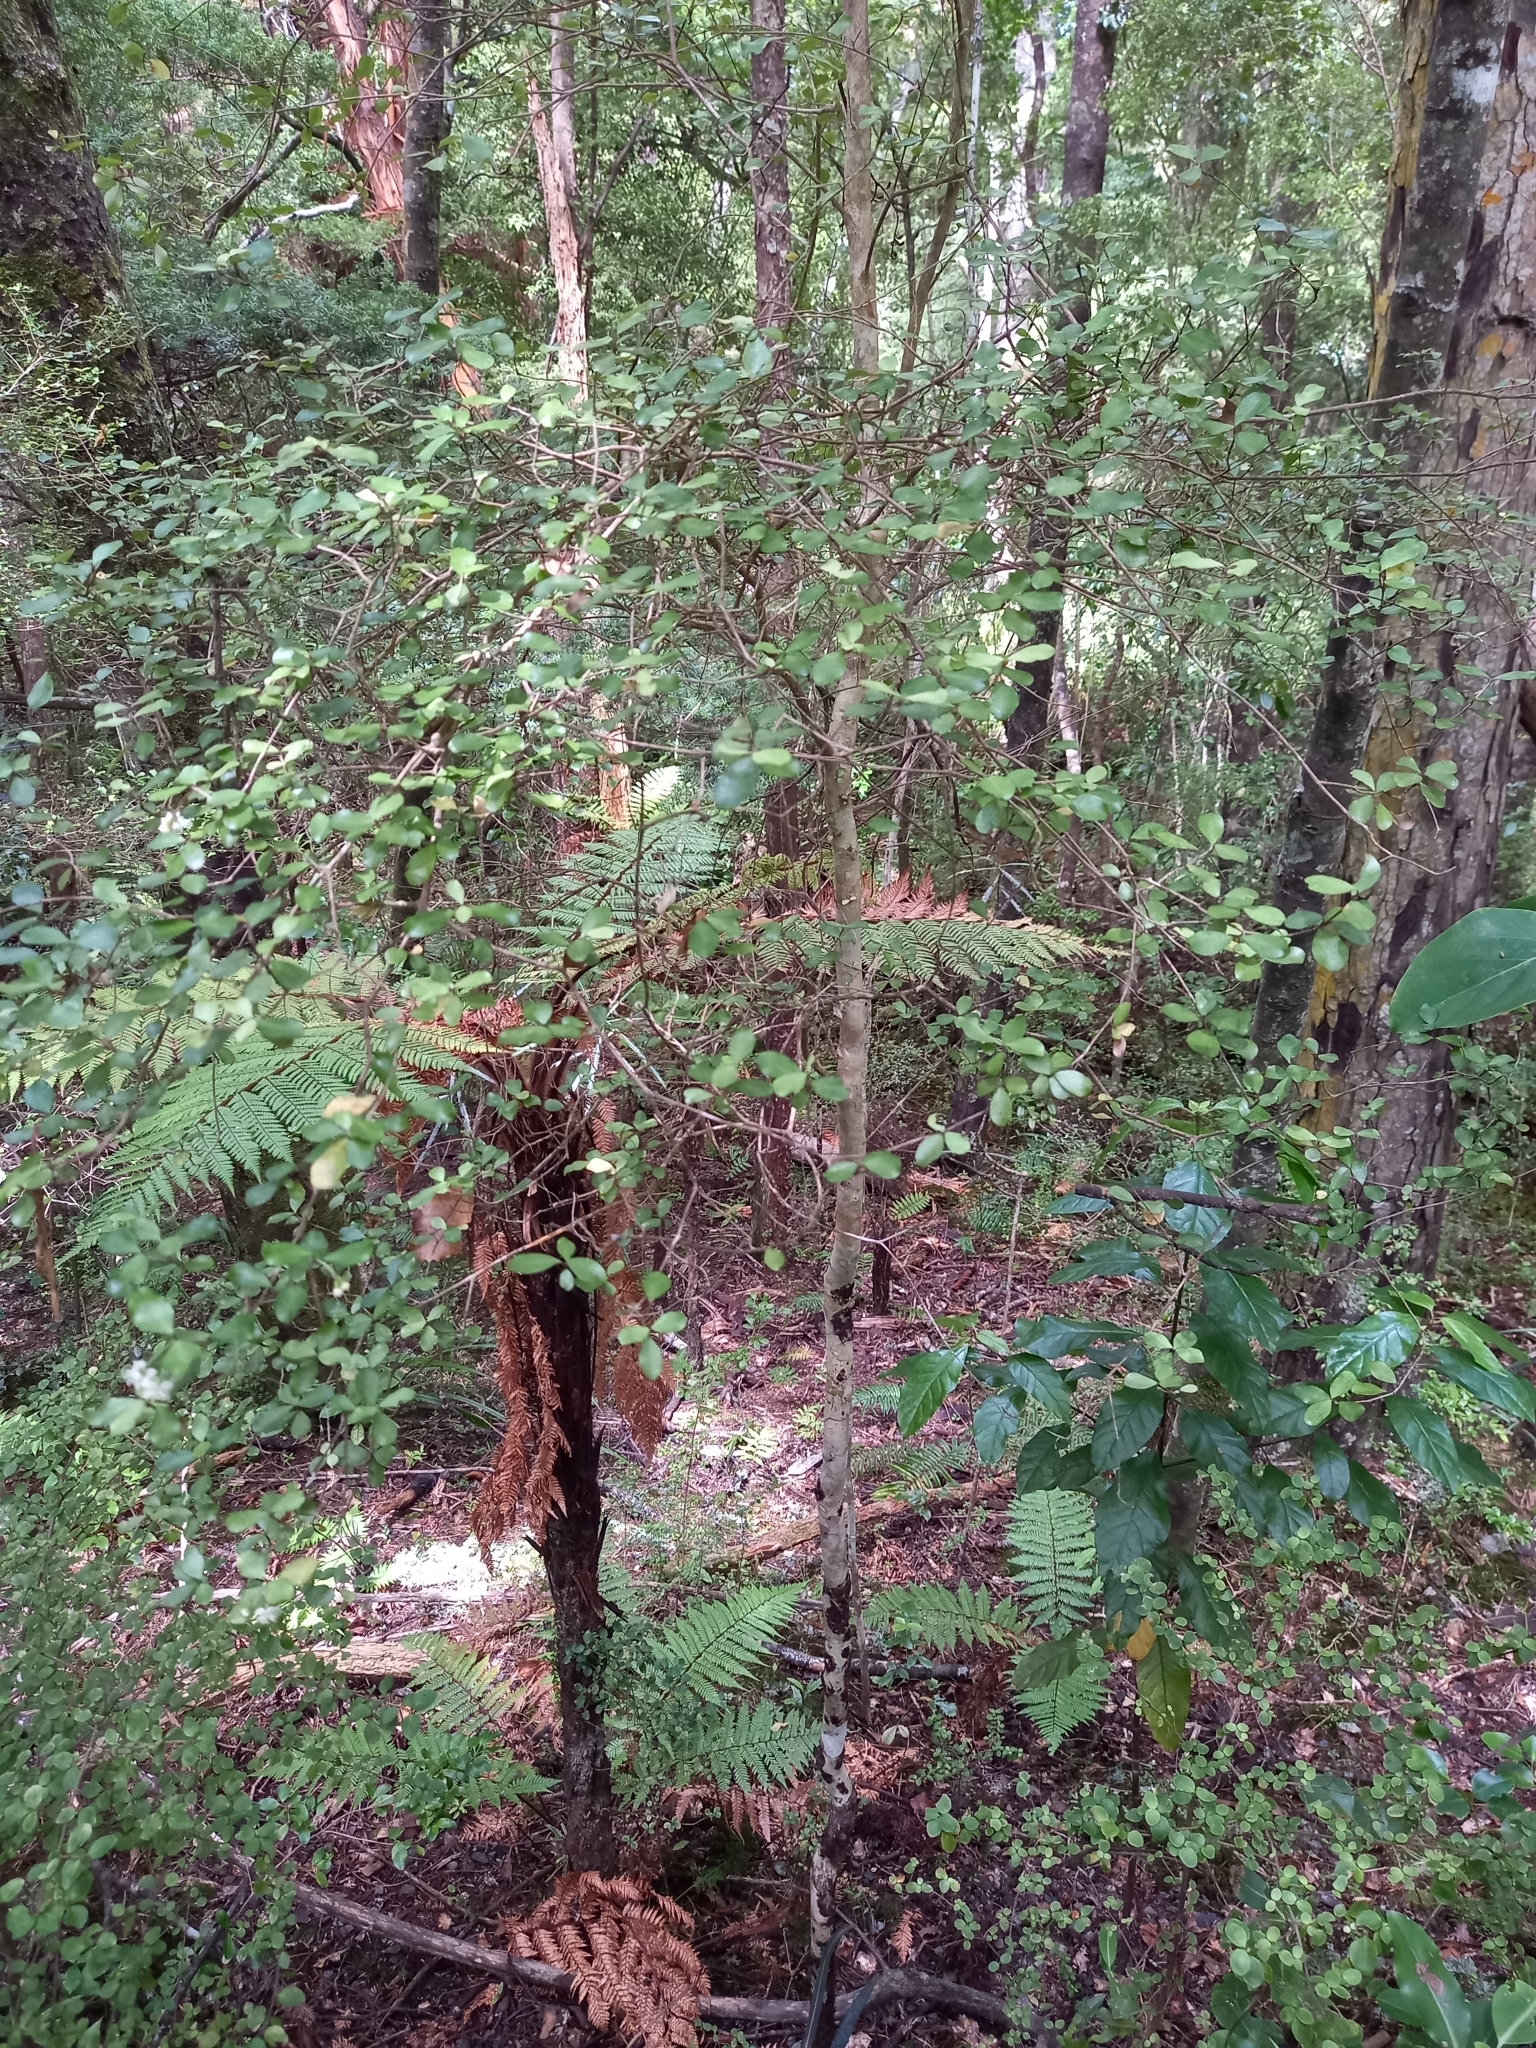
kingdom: Plantae
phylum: Tracheophyta
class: Magnoliopsida
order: Myrtales
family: Myrtaceae
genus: Luma
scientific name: Luma apiculata
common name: Chilean myrtle
